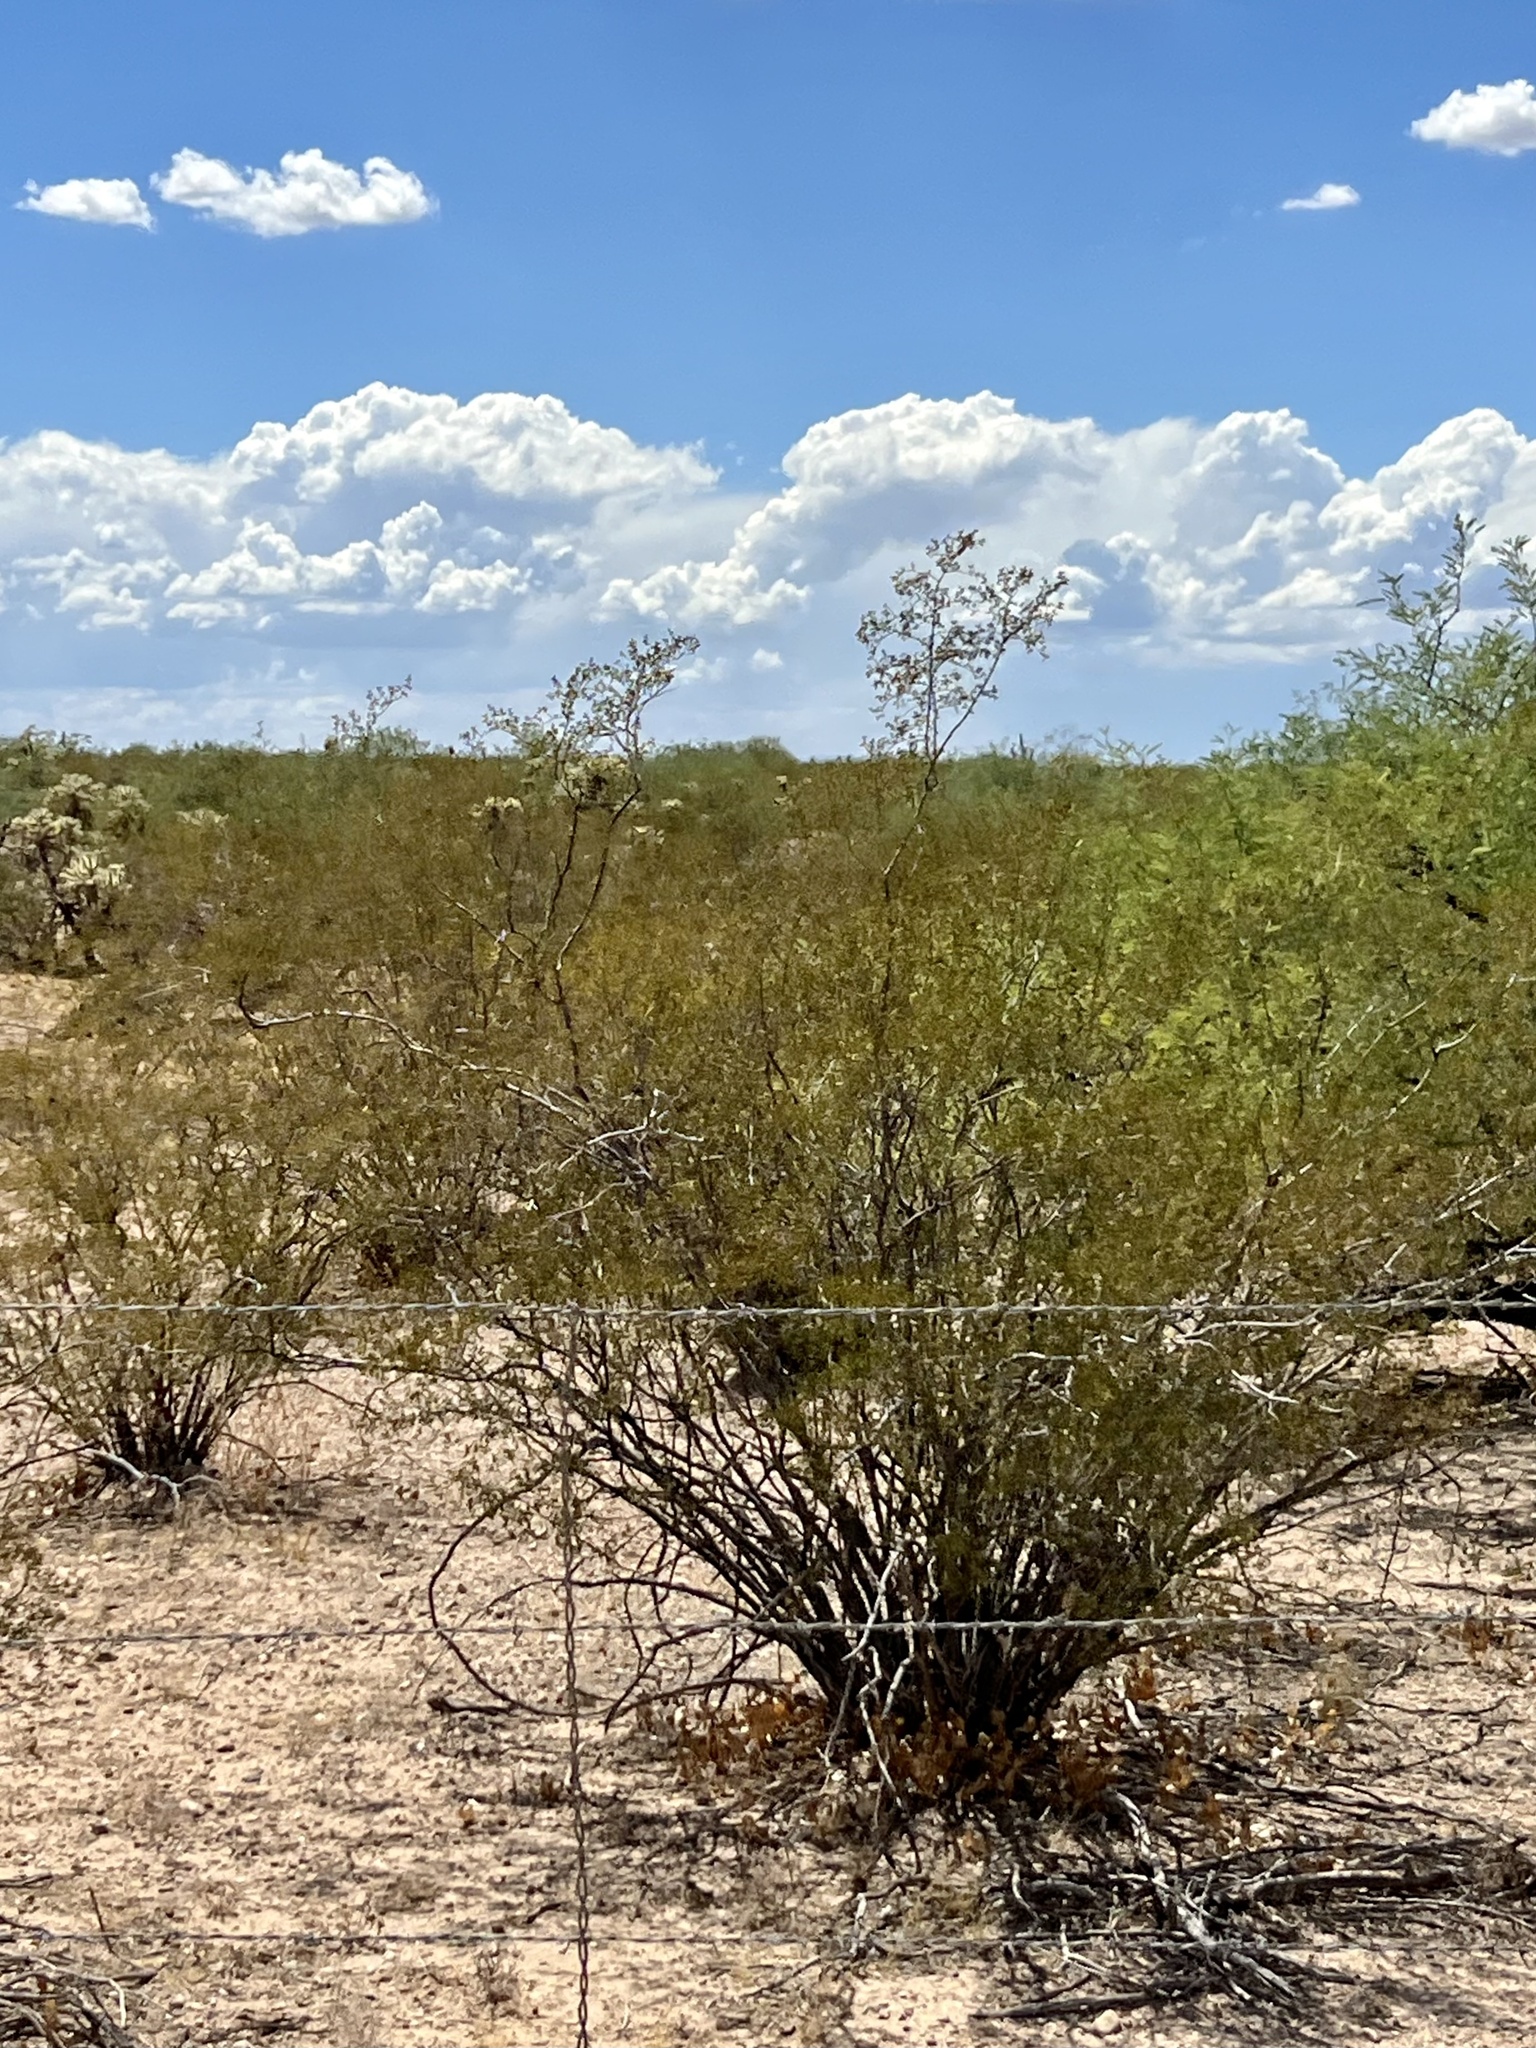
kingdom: Plantae
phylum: Tracheophyta
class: Magnoliopsida
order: Zygophyllales
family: Zygophyllaceae
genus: Larrea
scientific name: Larrea tridentata
